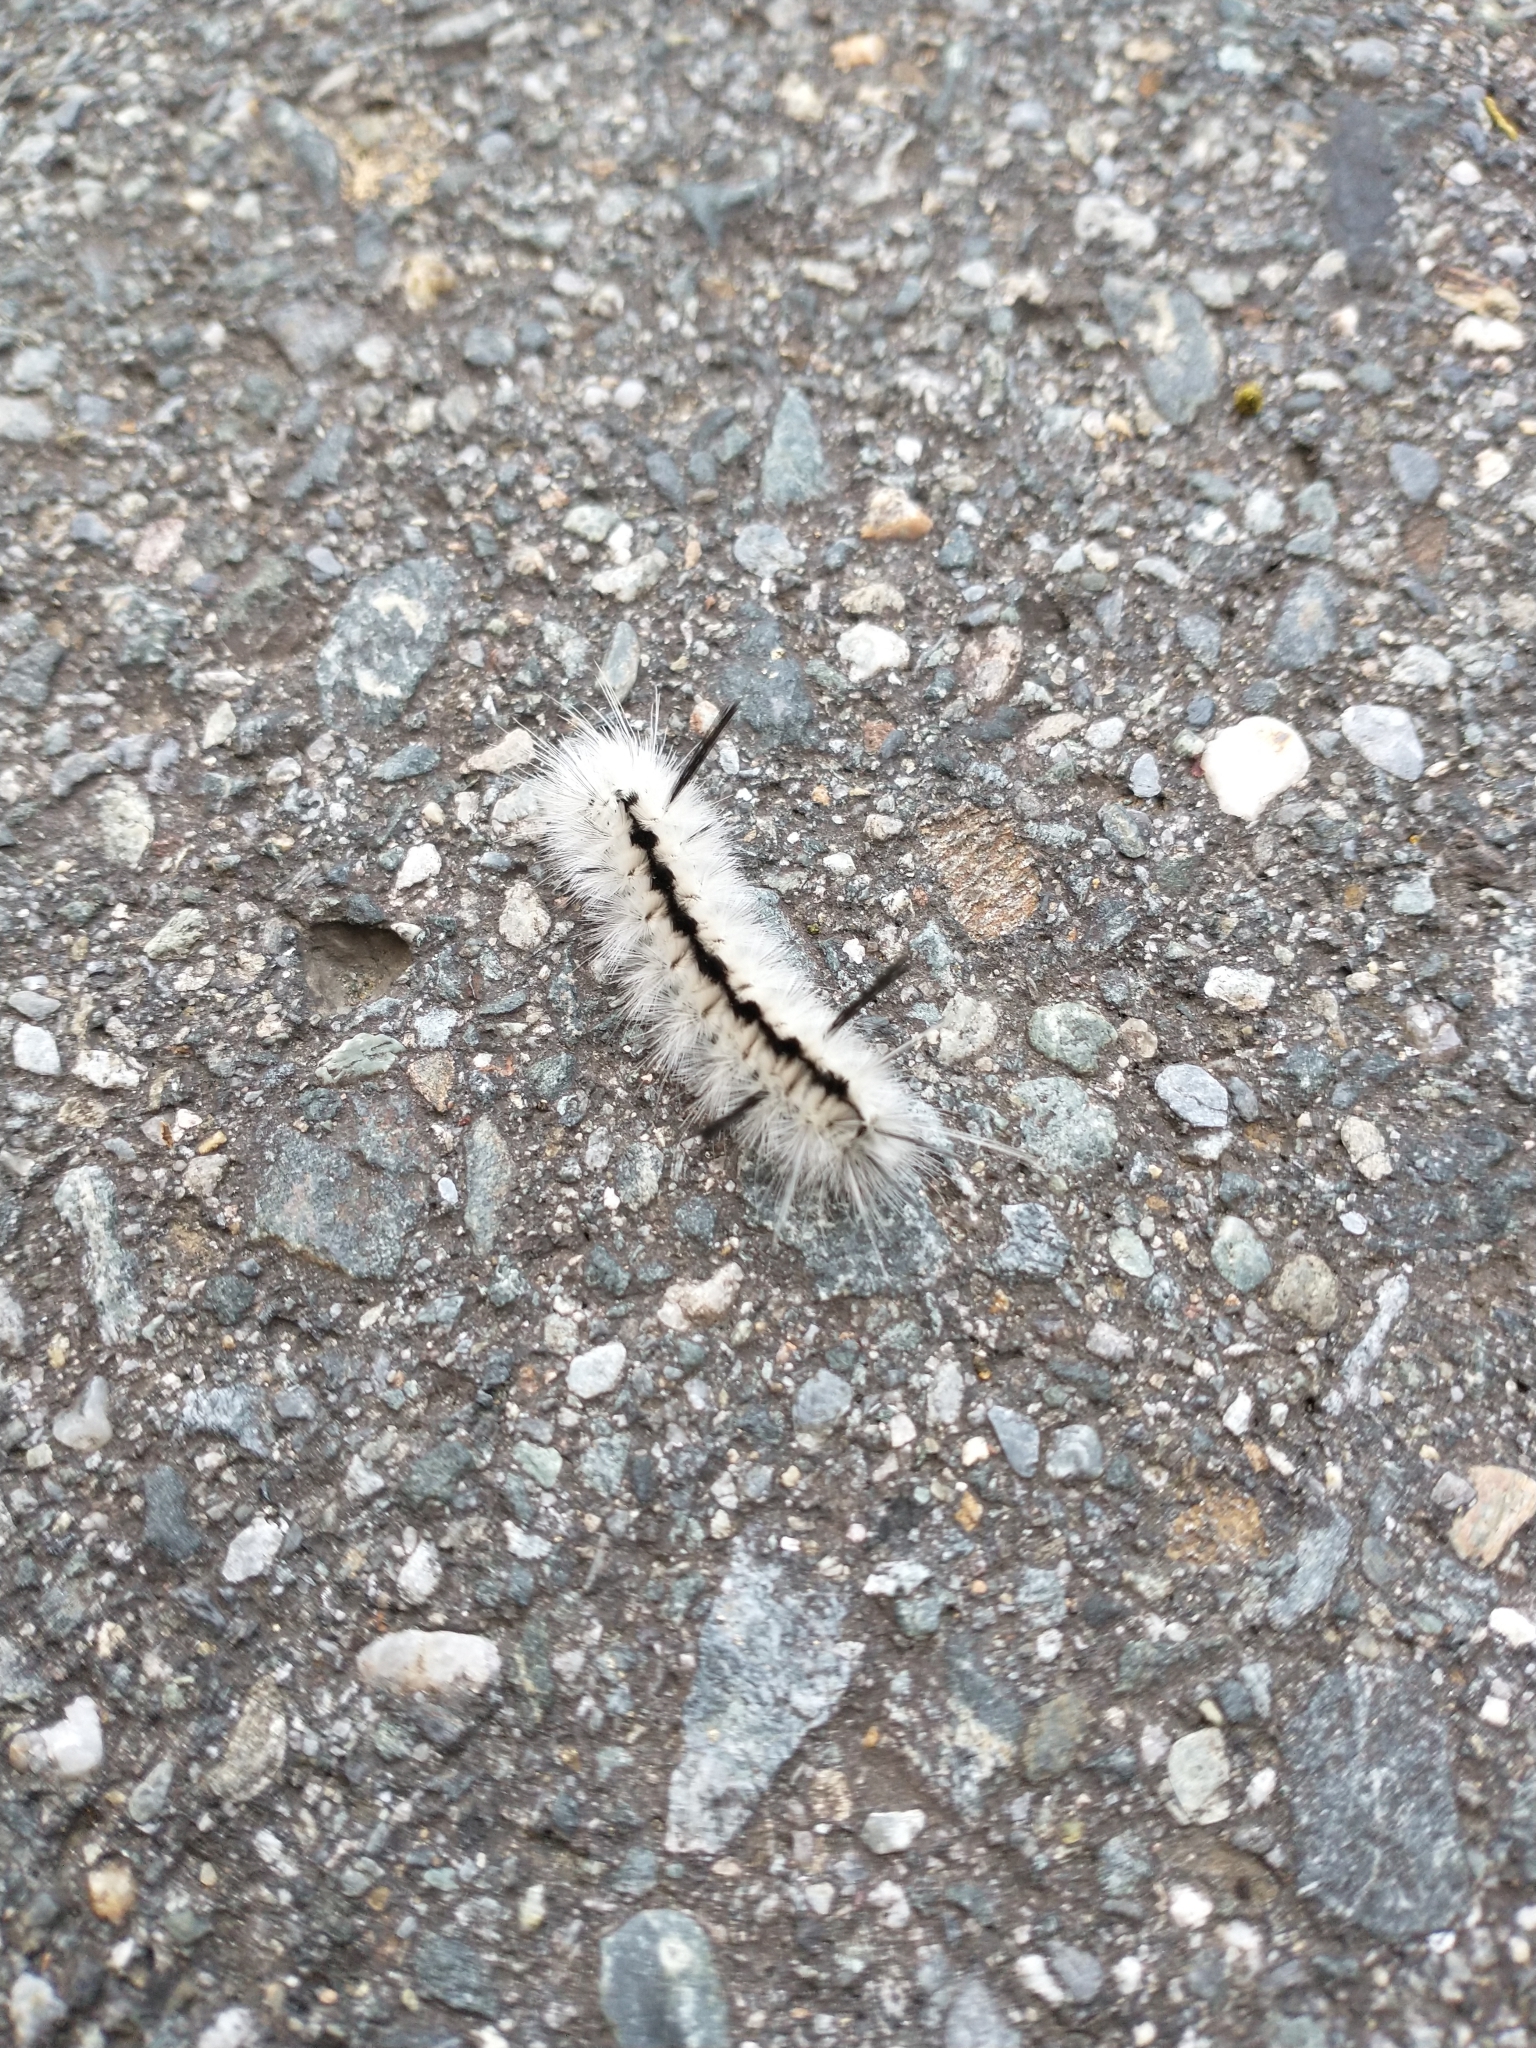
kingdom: Animalia
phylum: Arthropoda
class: Insecta
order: Lepidoptera
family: Erebidae
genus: Lophocampa
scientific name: Lophocampa caryae
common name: Hickory tussock moth
